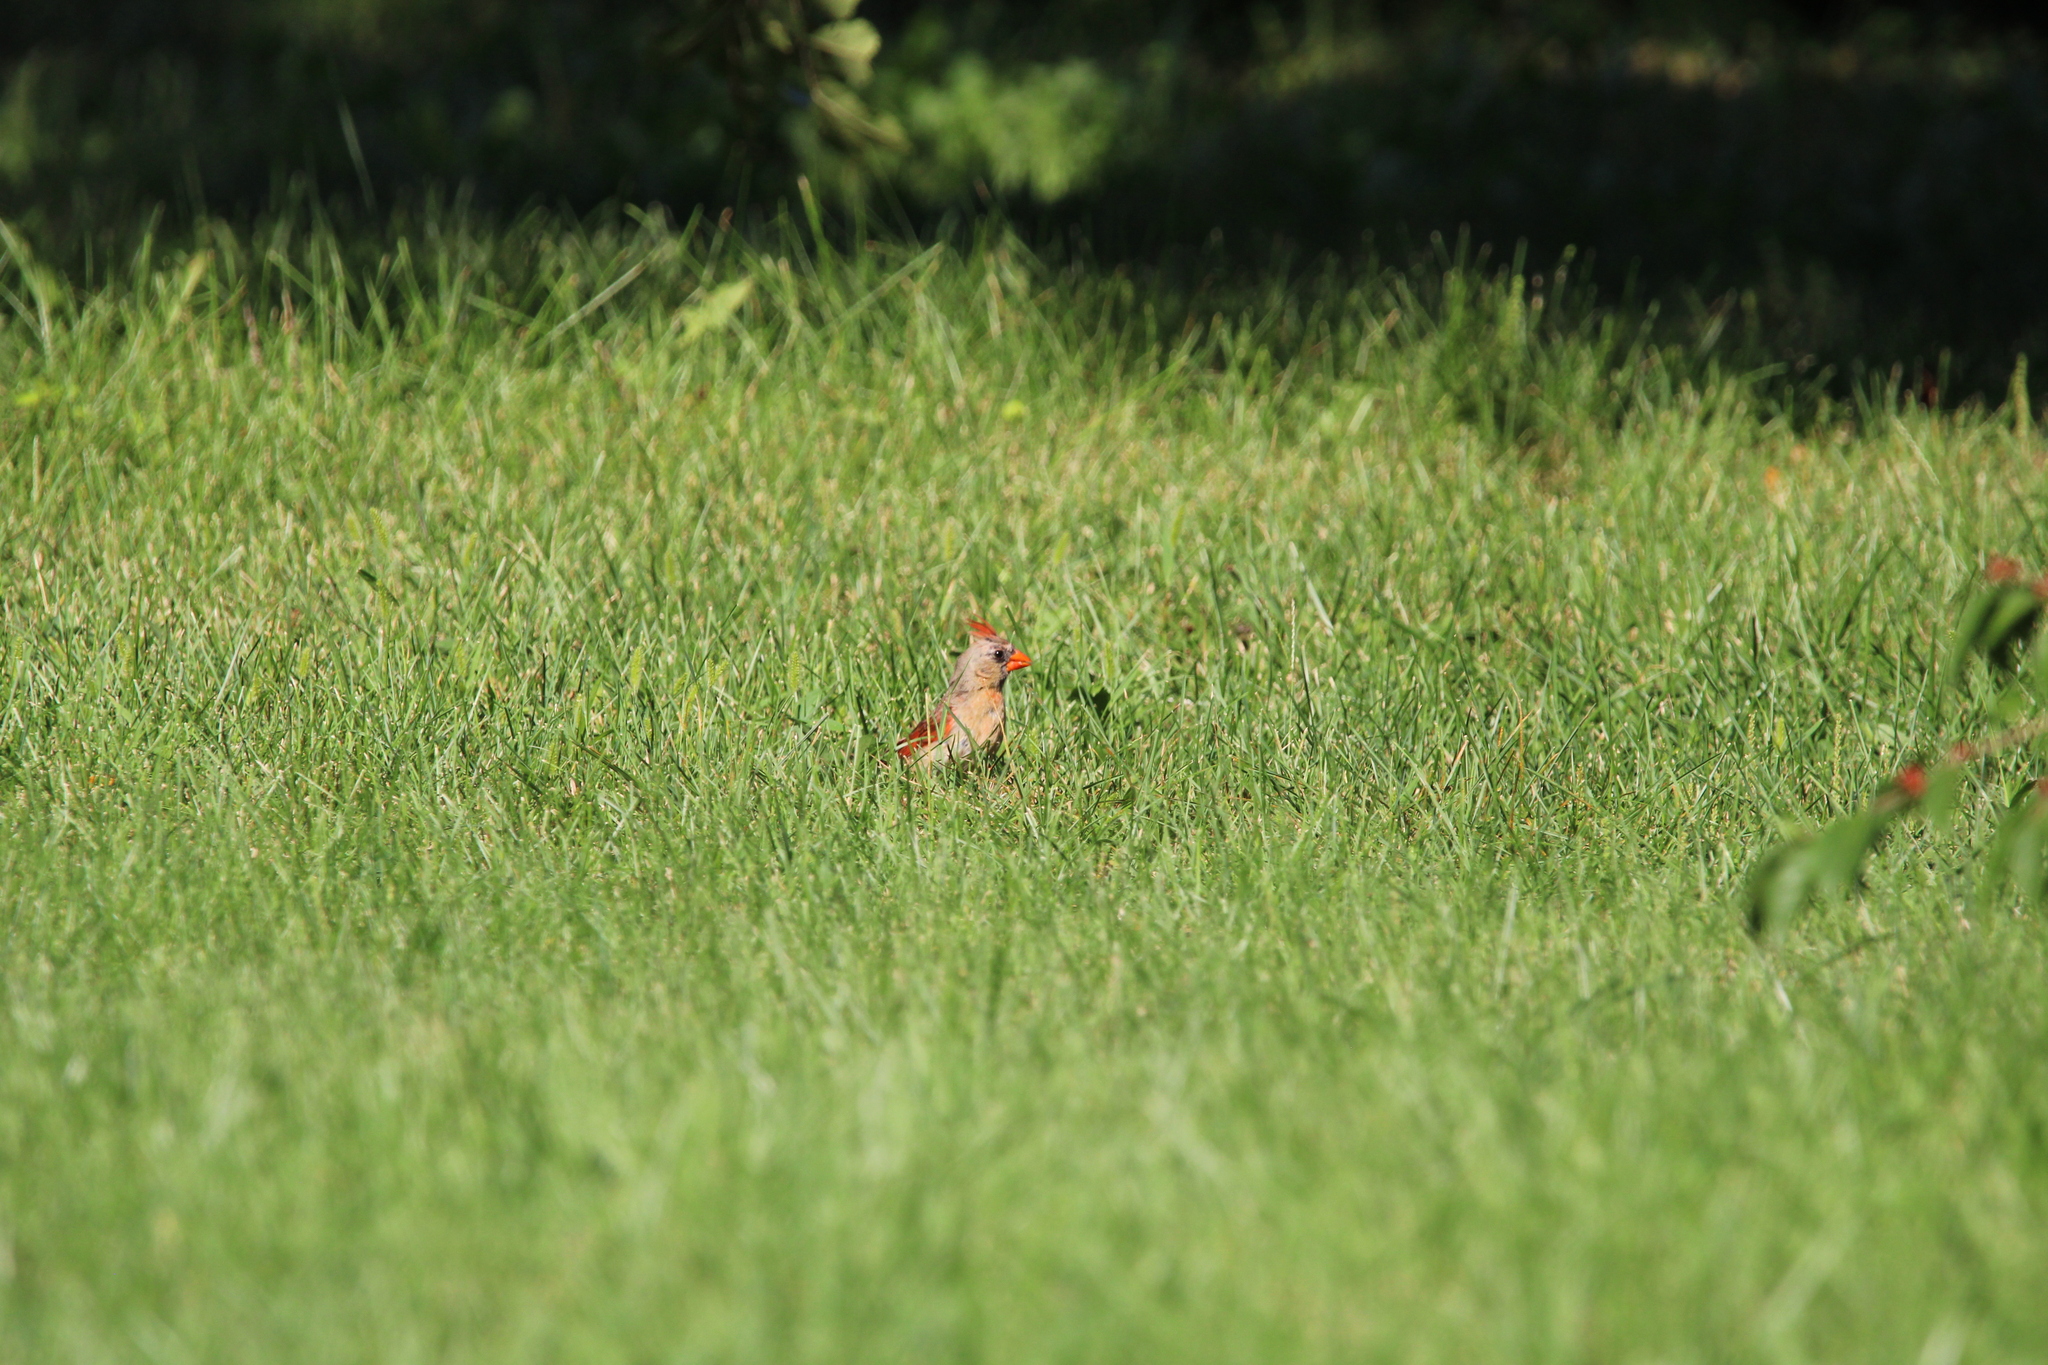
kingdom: Animalia
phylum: Chordata
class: Aves
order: Passeriformes
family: Cardinalidae
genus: Cardinalis
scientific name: Cardinalis cardinalis
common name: Northern cardinal
